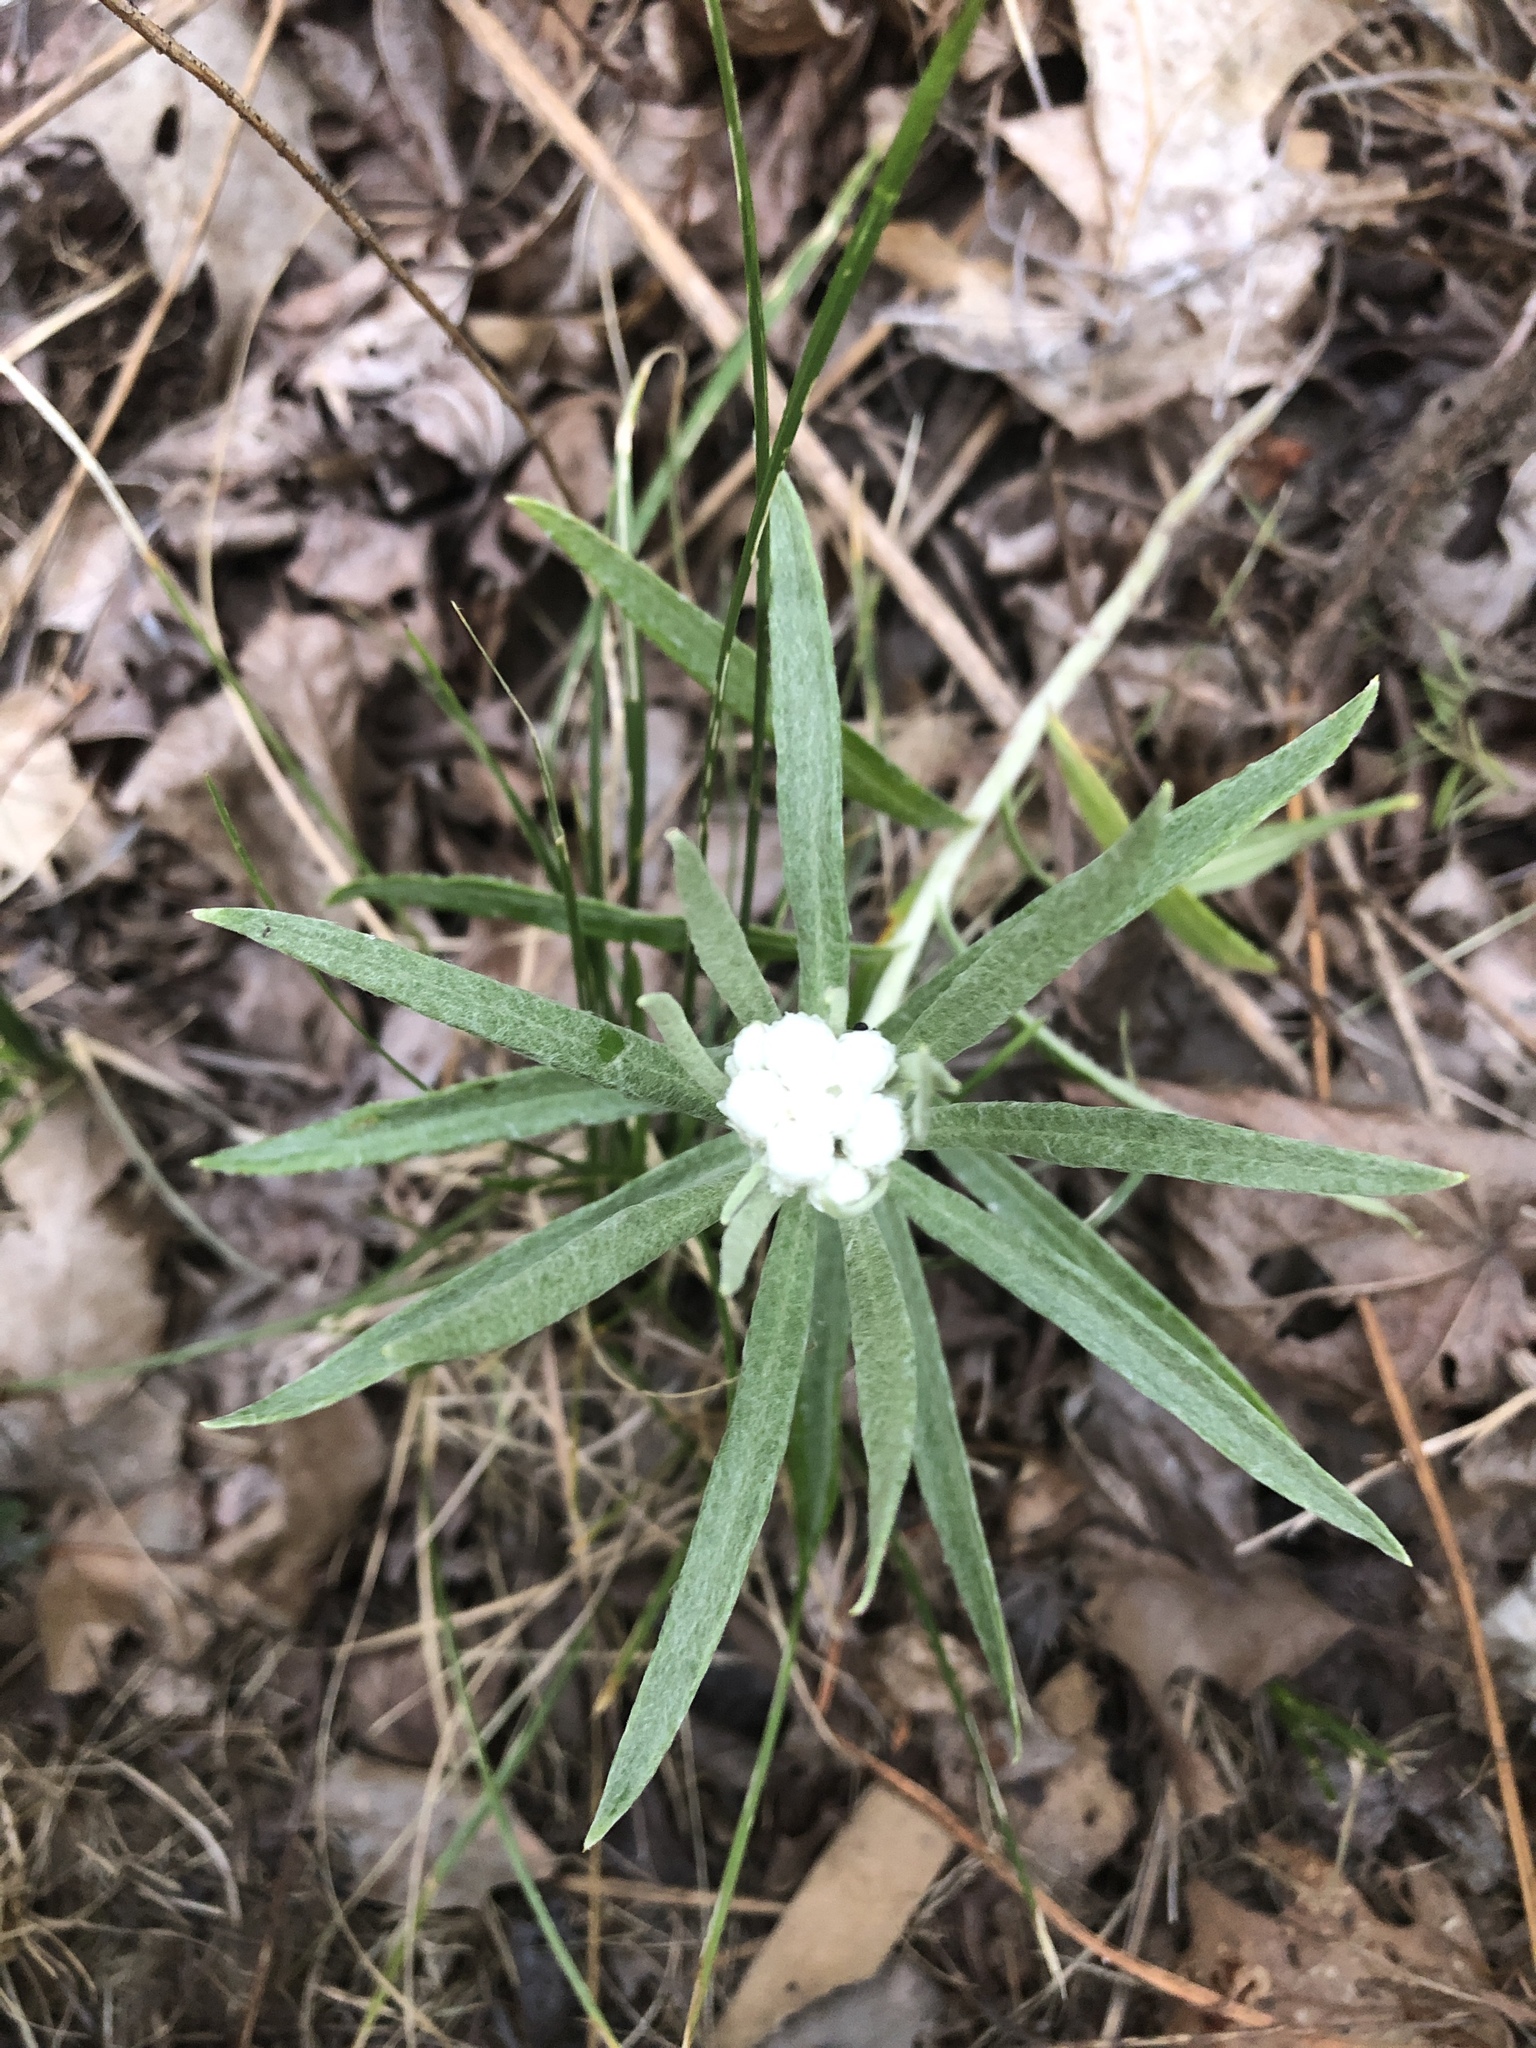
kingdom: Plantae
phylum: Tracheophyta
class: Magnoliopsida
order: Asterales
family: Asteraceae
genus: Anaphalis
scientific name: Anaphalis margaritacea
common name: Pearly everlasting
